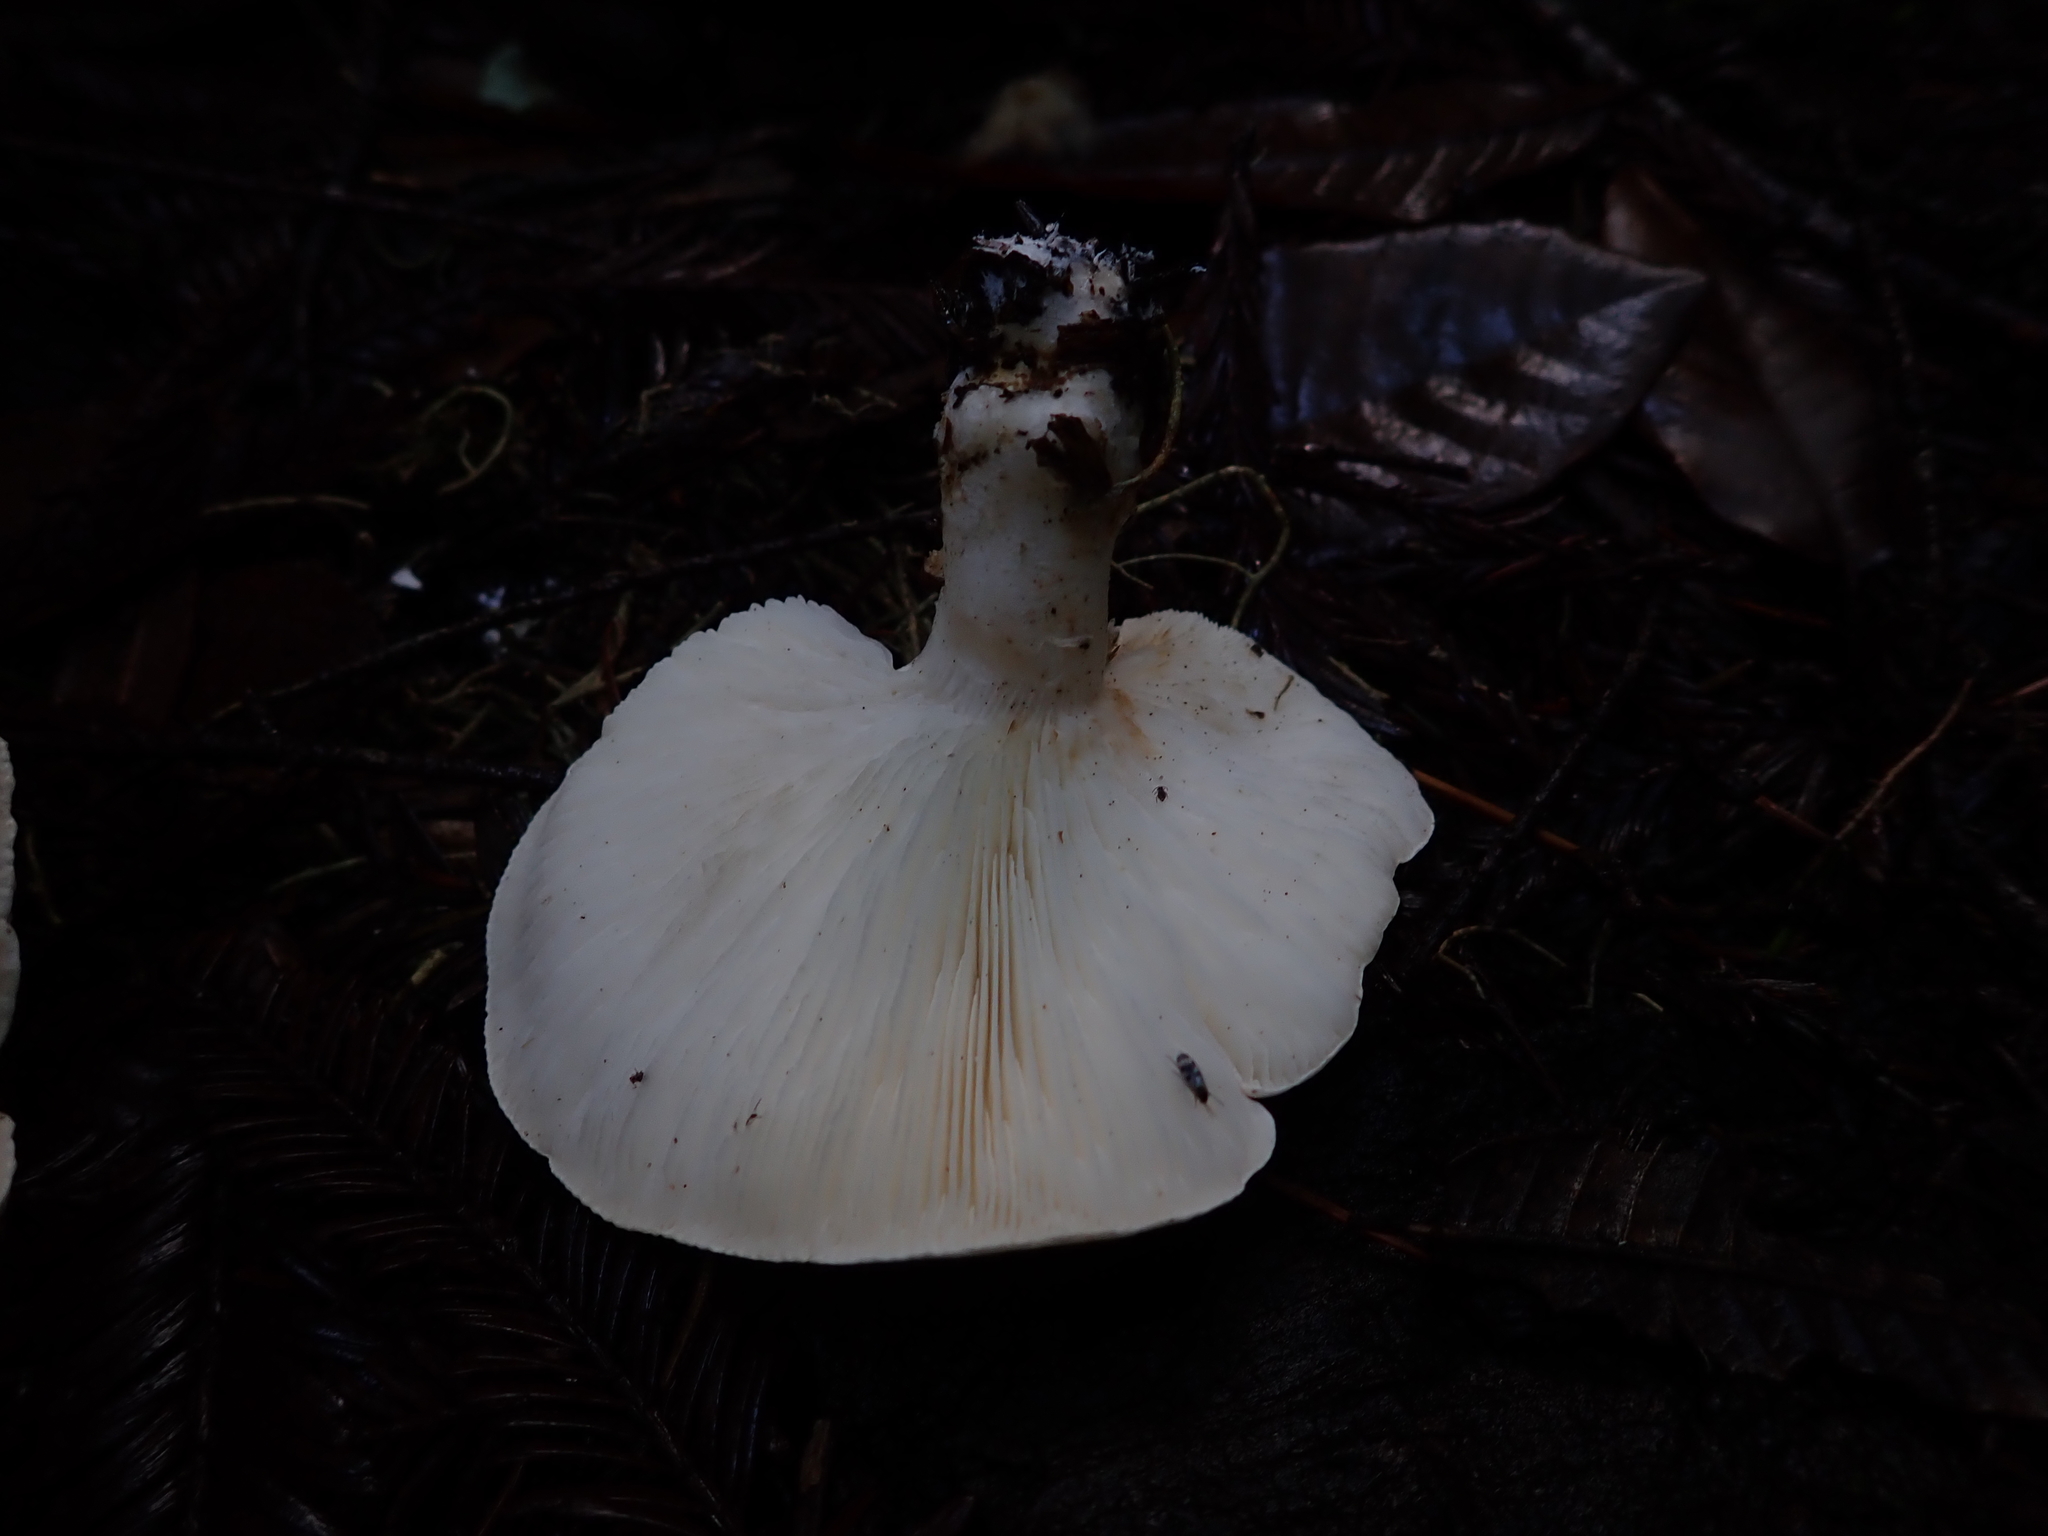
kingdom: Fungi
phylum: Basidiomycota
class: Agaricomycetes
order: Agaricales
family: Tricholomataceae
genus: Leucopaxillus
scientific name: Leucopaxillus gentianeus
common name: Bitter funnel
